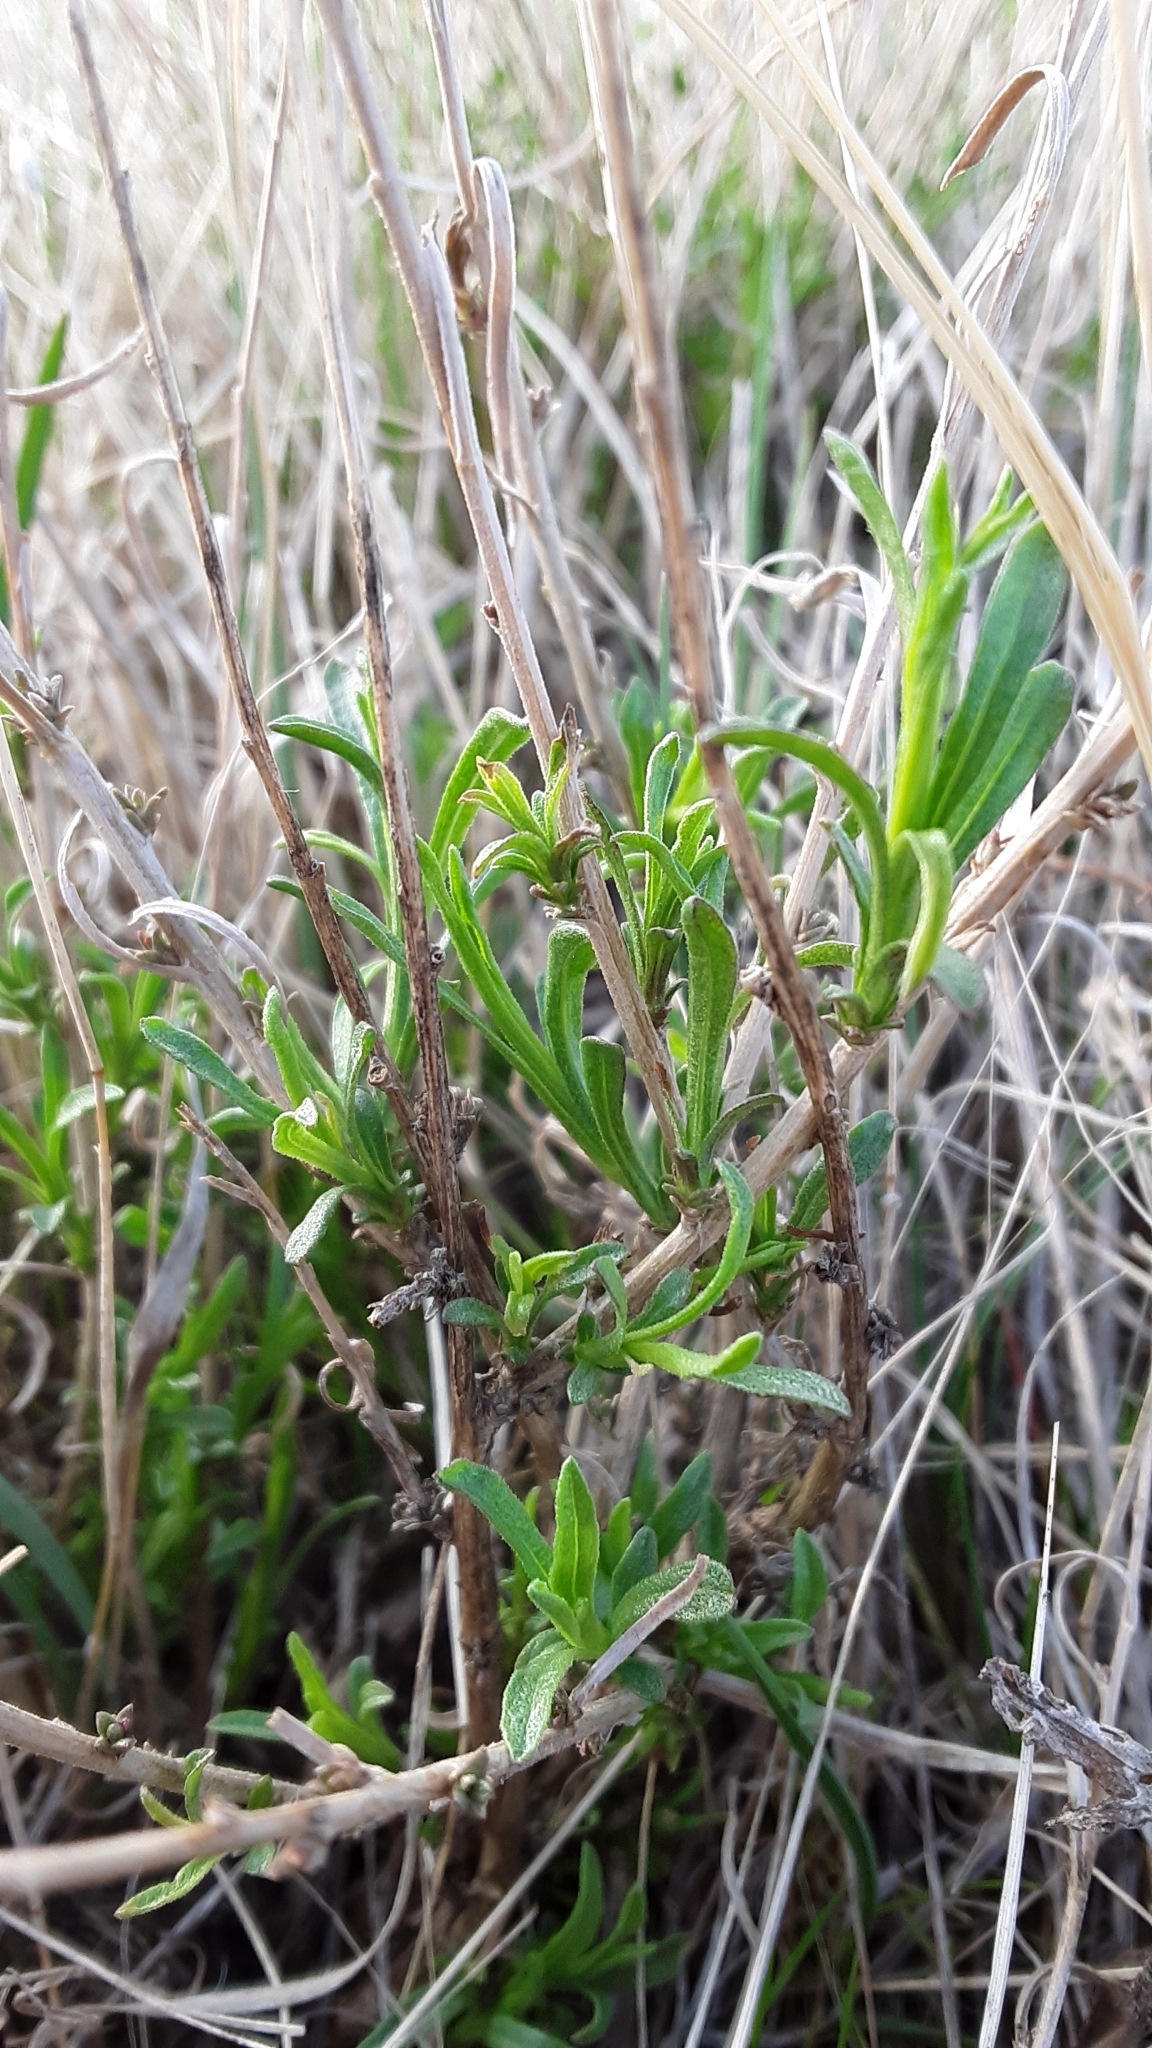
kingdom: Plantae
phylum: Tracheophyta
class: Magnoliopsida
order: Asterales
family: Asteraceae
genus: Gutierrezia
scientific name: Gutierrezia sarothrae
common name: Broom snakeweed
